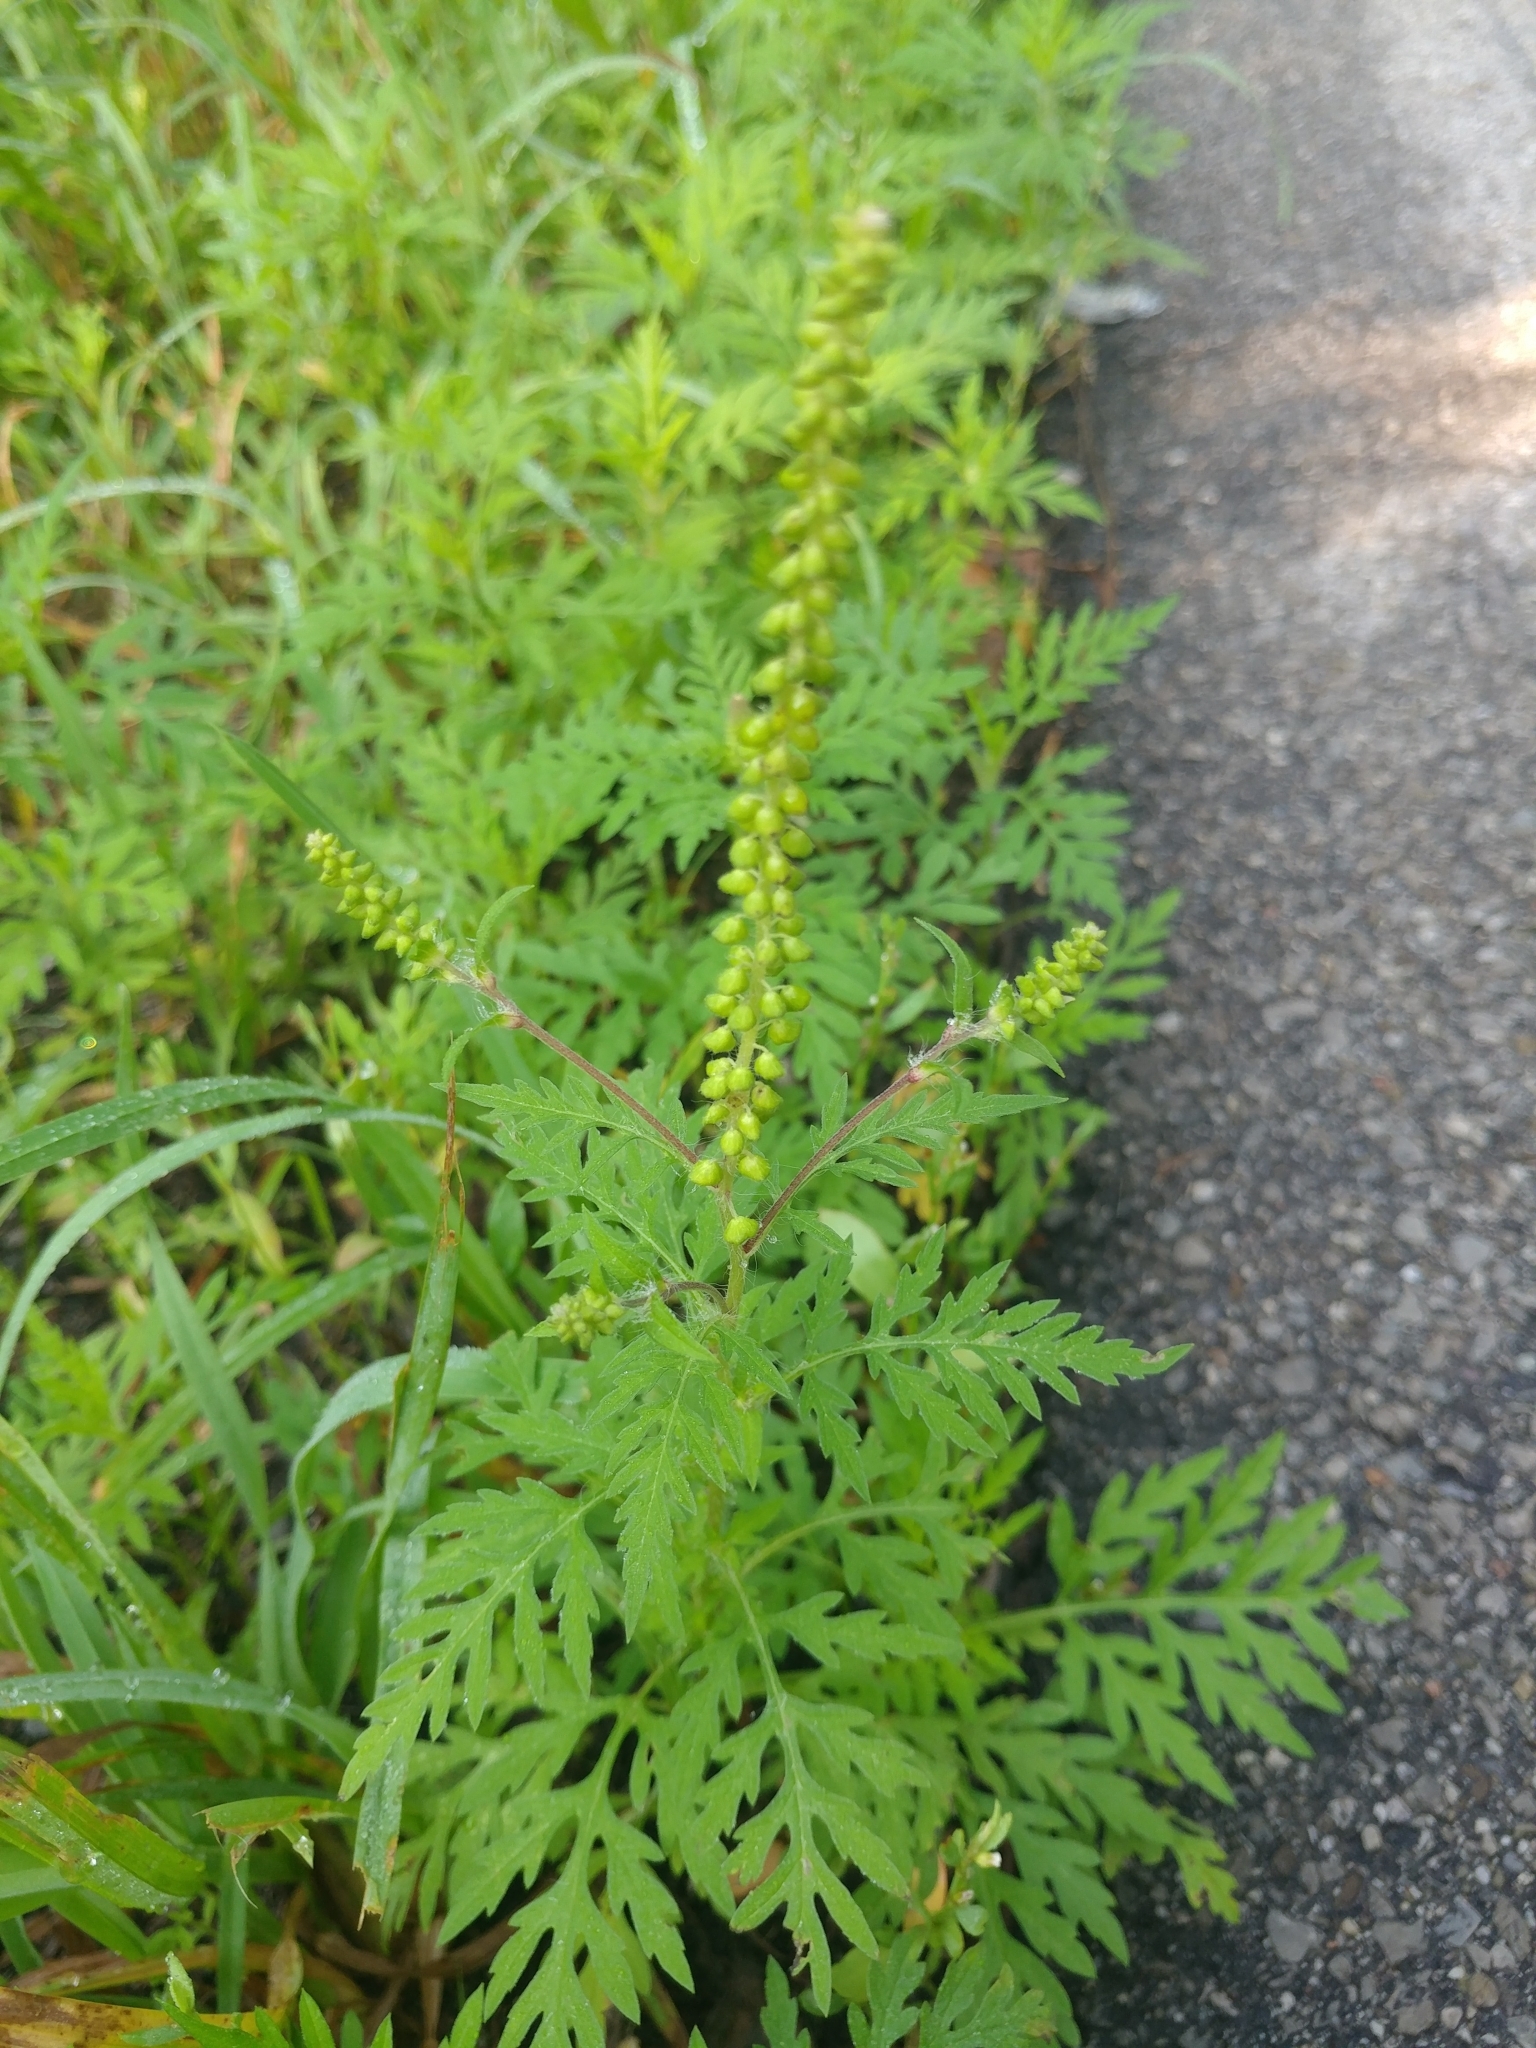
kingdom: Plantae
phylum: Tracheophyta
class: Magnoliopsida
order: Asterales
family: Asteraceae
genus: Ambrosia
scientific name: Ambrosia artemisiifolia
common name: Annual ragweed
